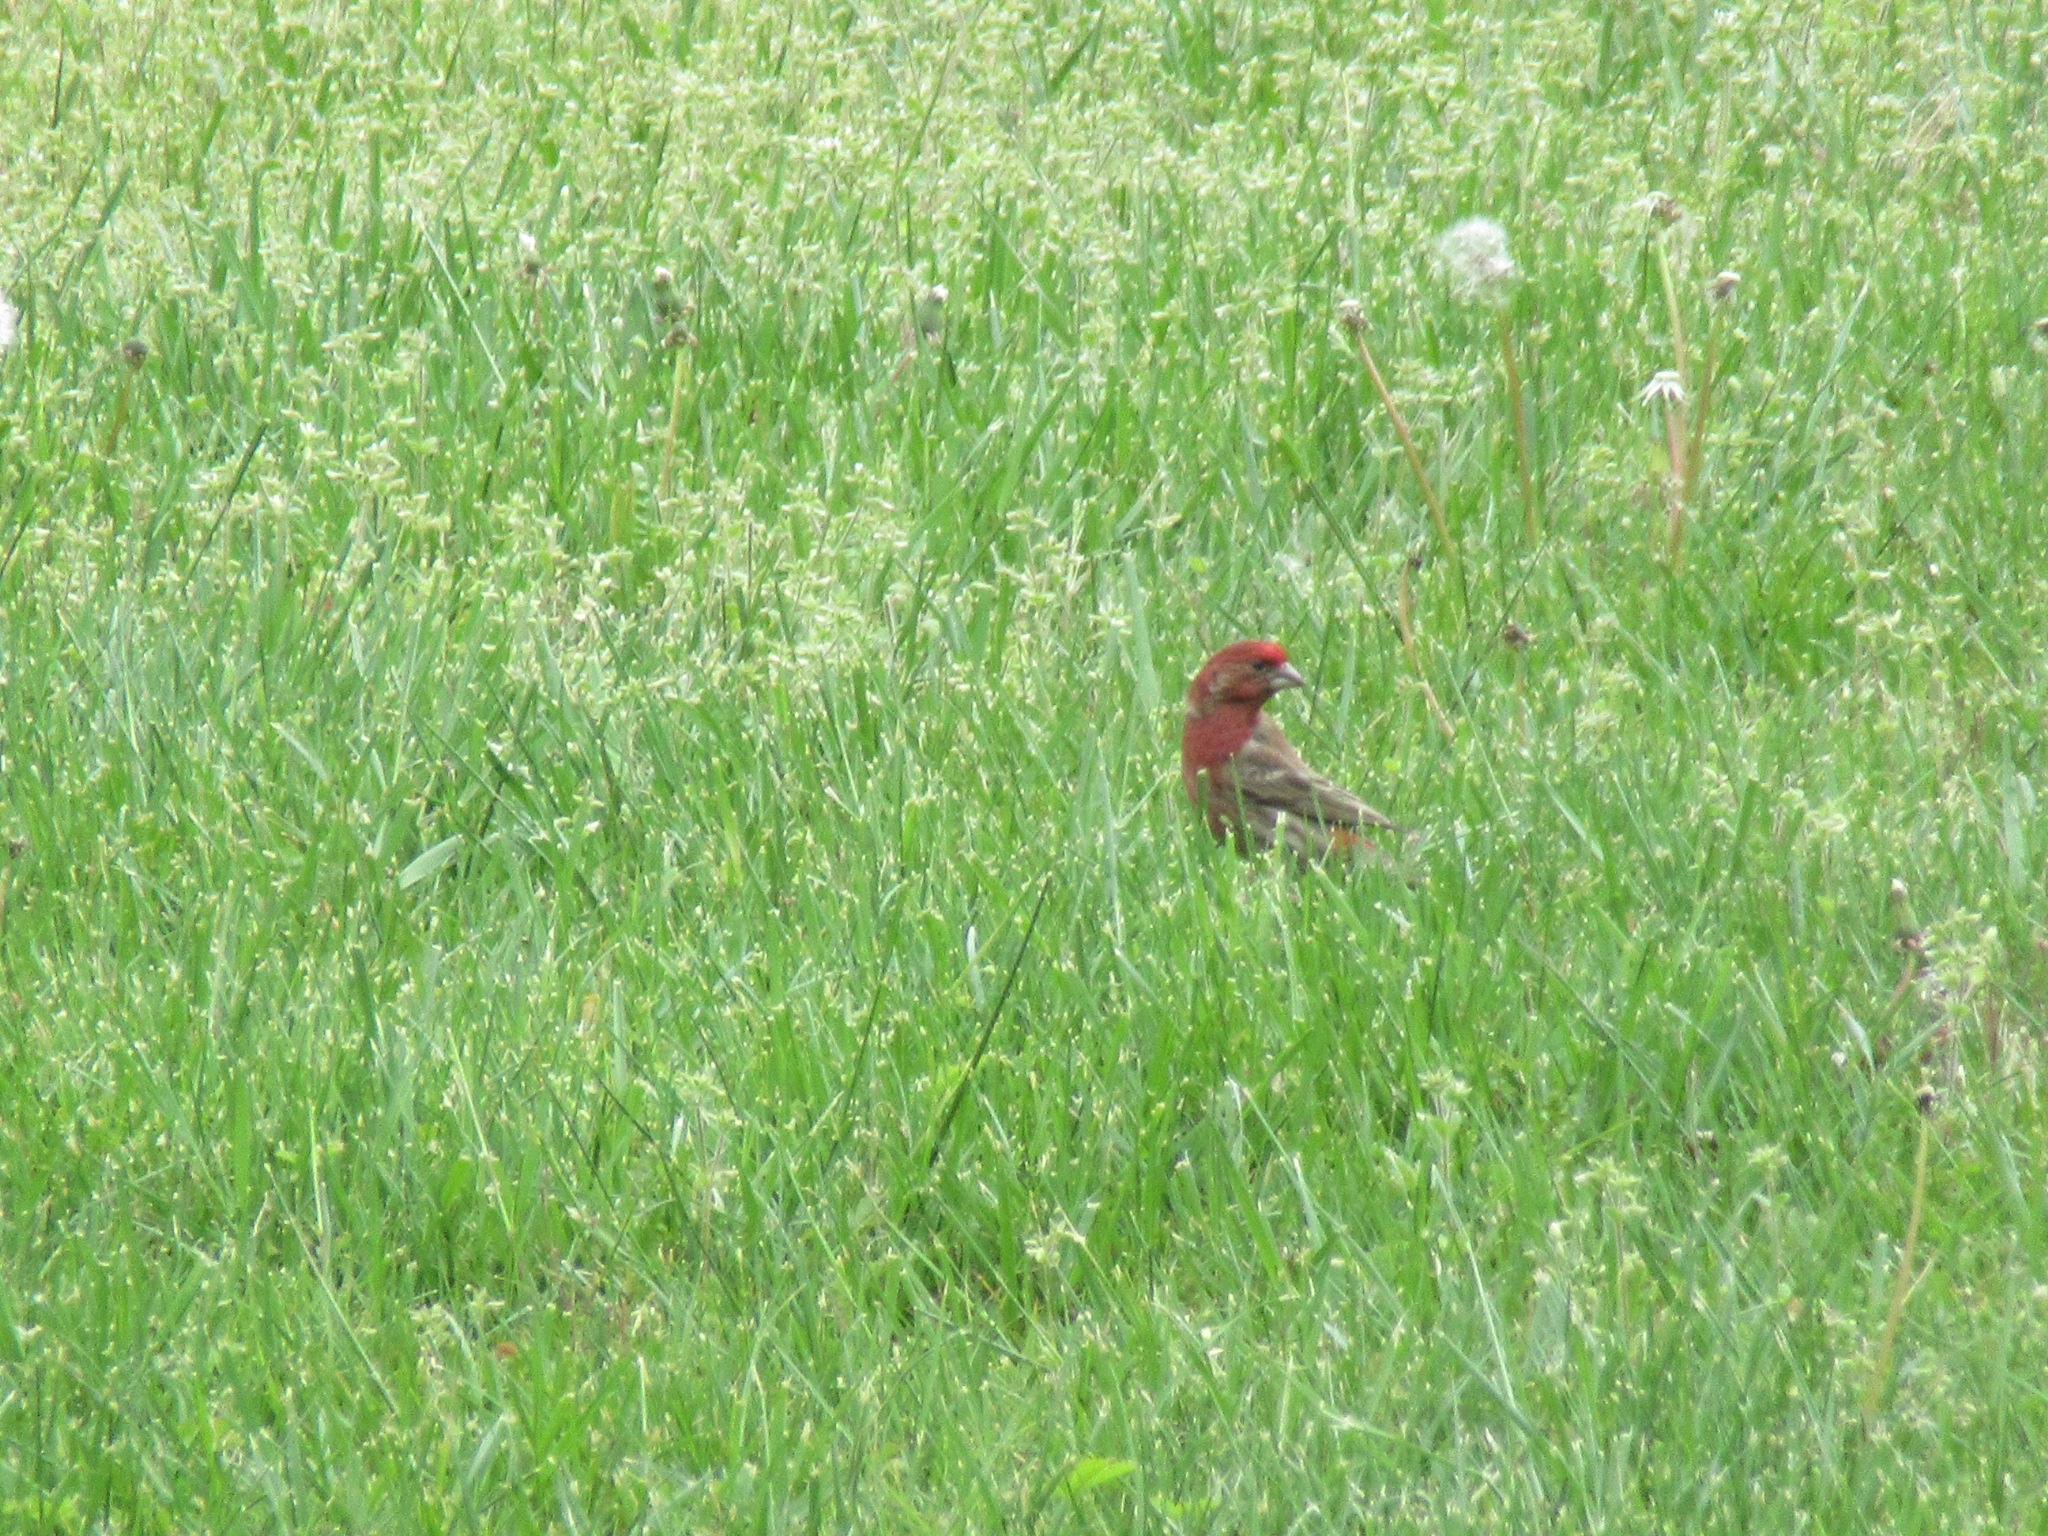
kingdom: Animalia
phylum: Chordata
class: Aves
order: Passeriformes
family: Fringillidae
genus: Haemorhous
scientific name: Haemorhous mexicanus
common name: House finch
